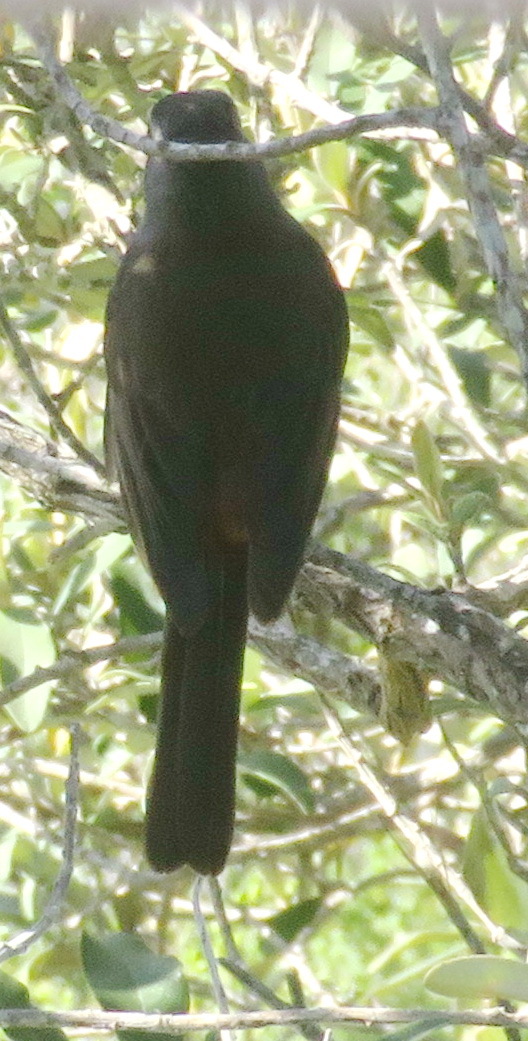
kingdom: Animalia
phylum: Chordata
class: Aves
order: Passeriformes
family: Muscicapidae
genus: Cossypha
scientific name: Cossypha caffra
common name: Cape robin-chat
